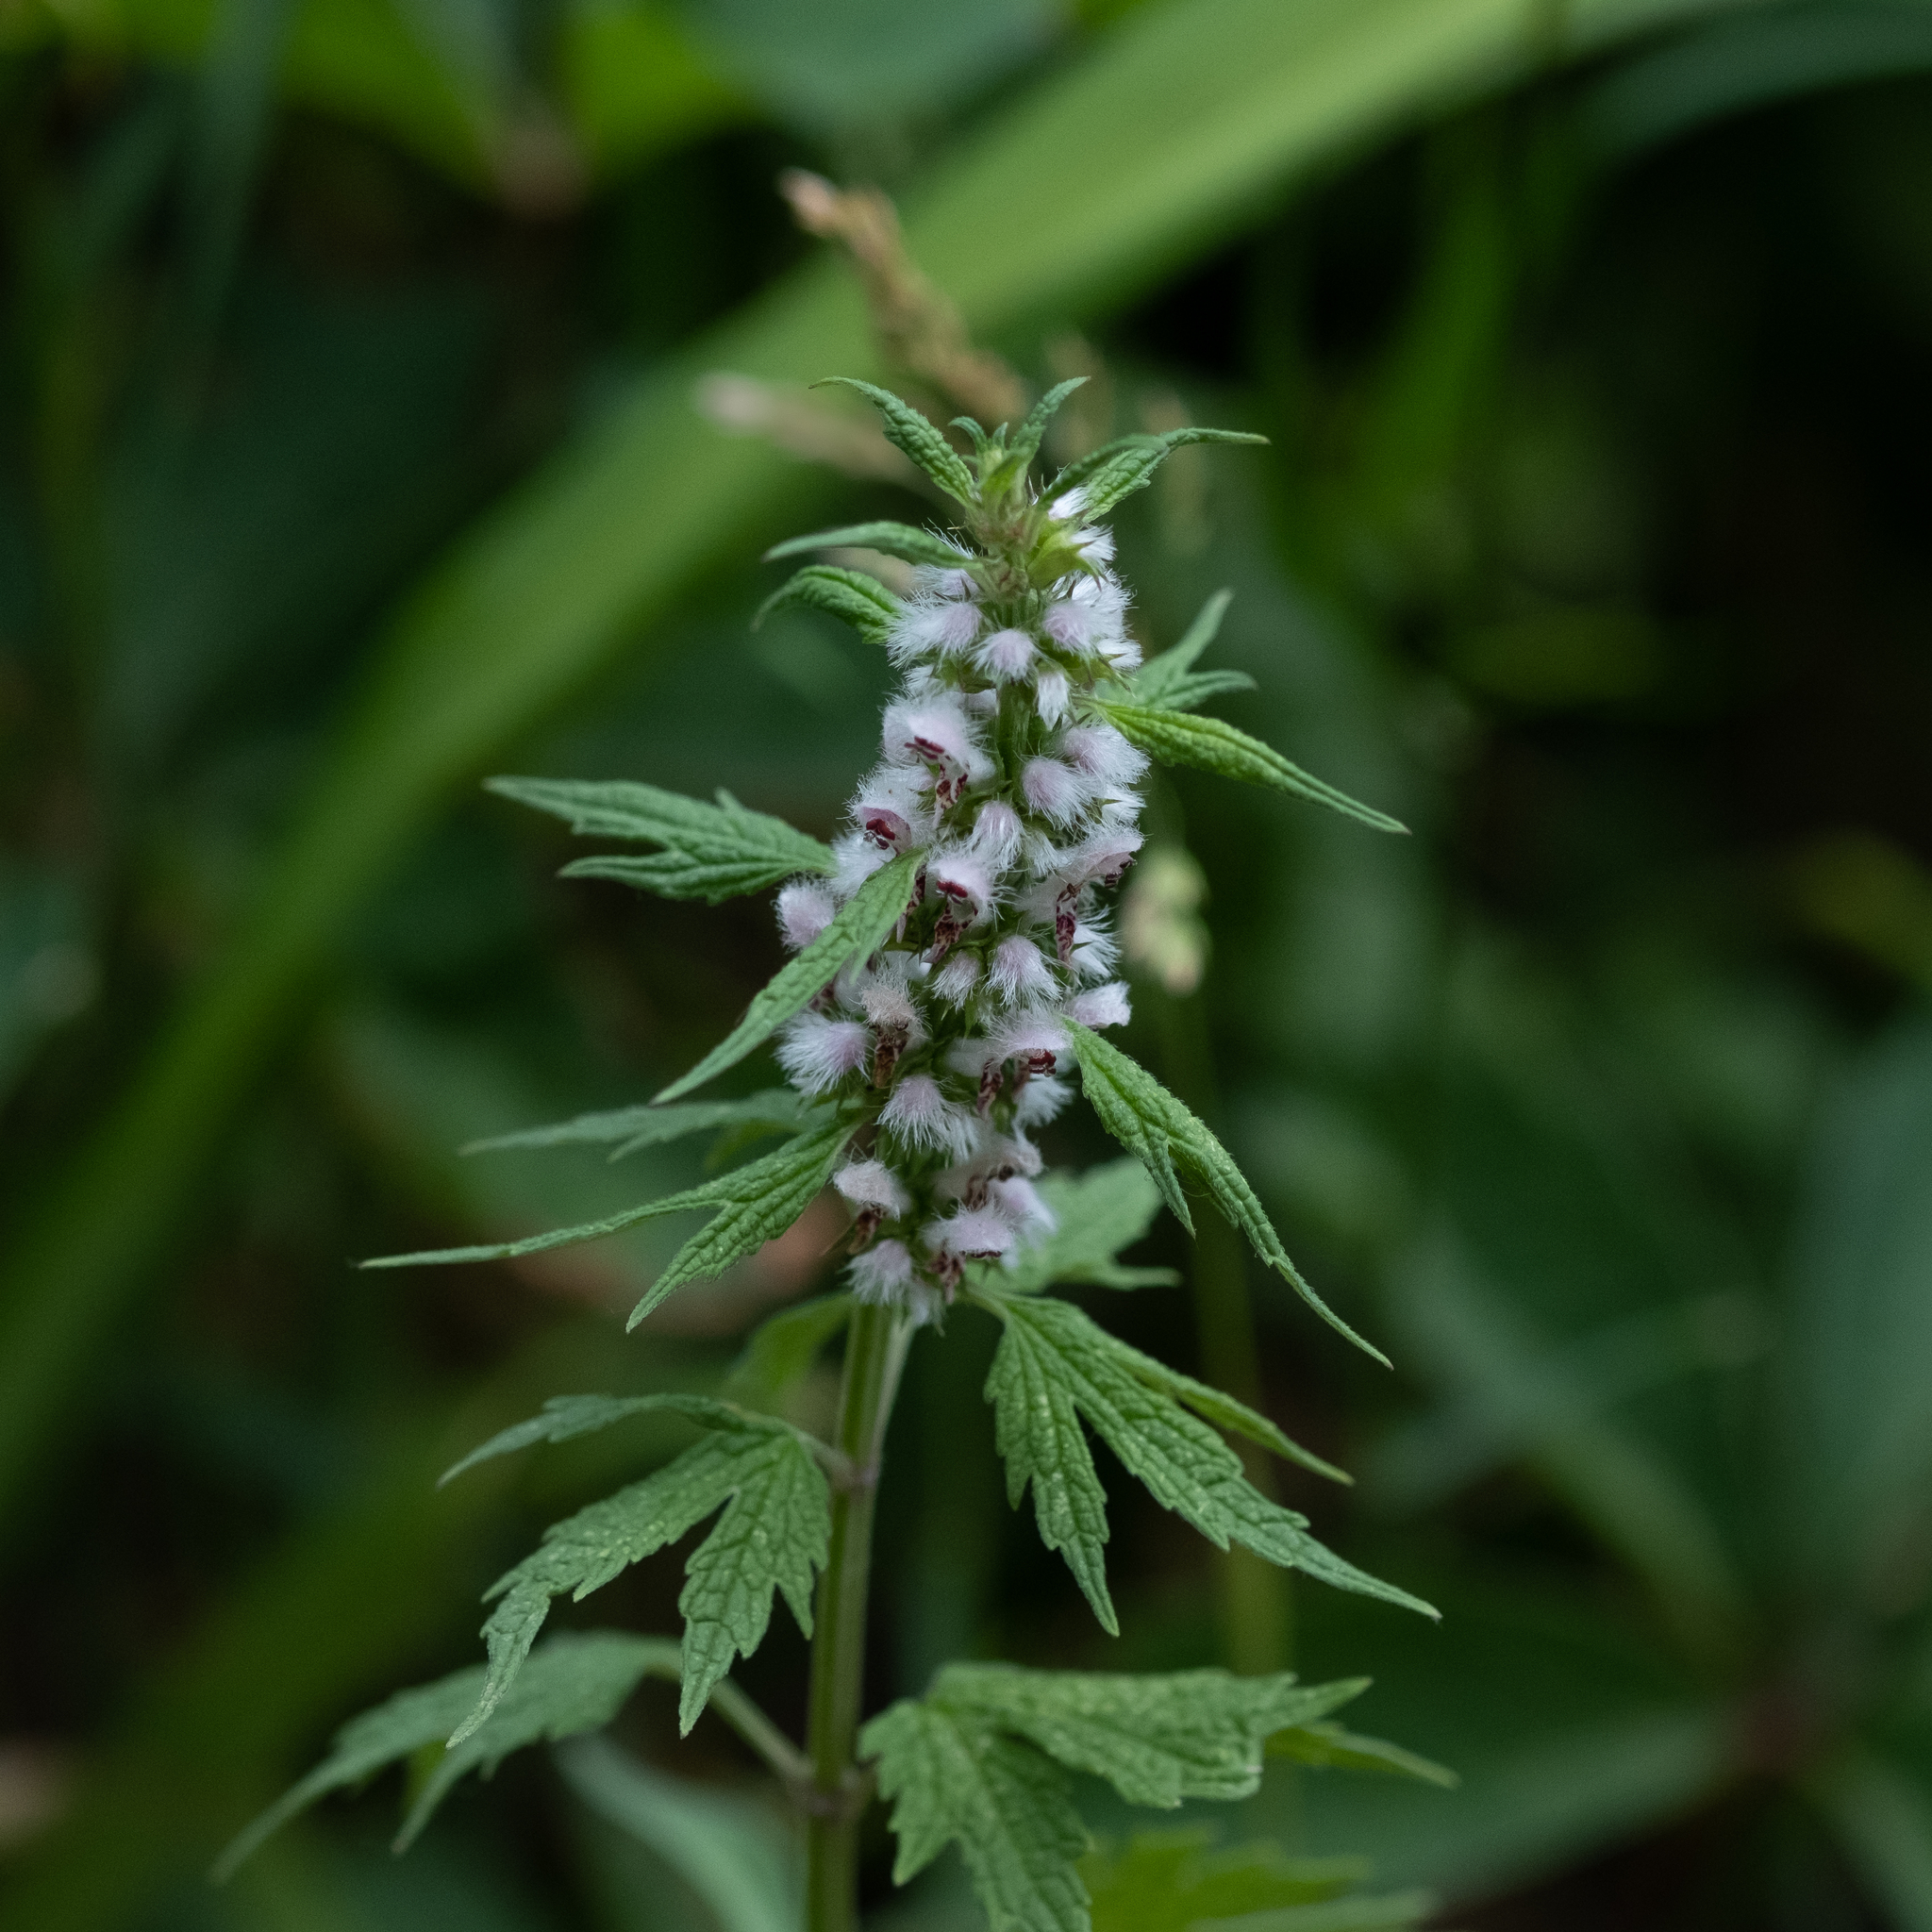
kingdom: Plantae
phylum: Tracheophyta
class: Magnoliopsida
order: Lamiales
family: Lamiaceae
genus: Leonurus
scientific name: Leonurus cardiaca
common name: Motherwort
